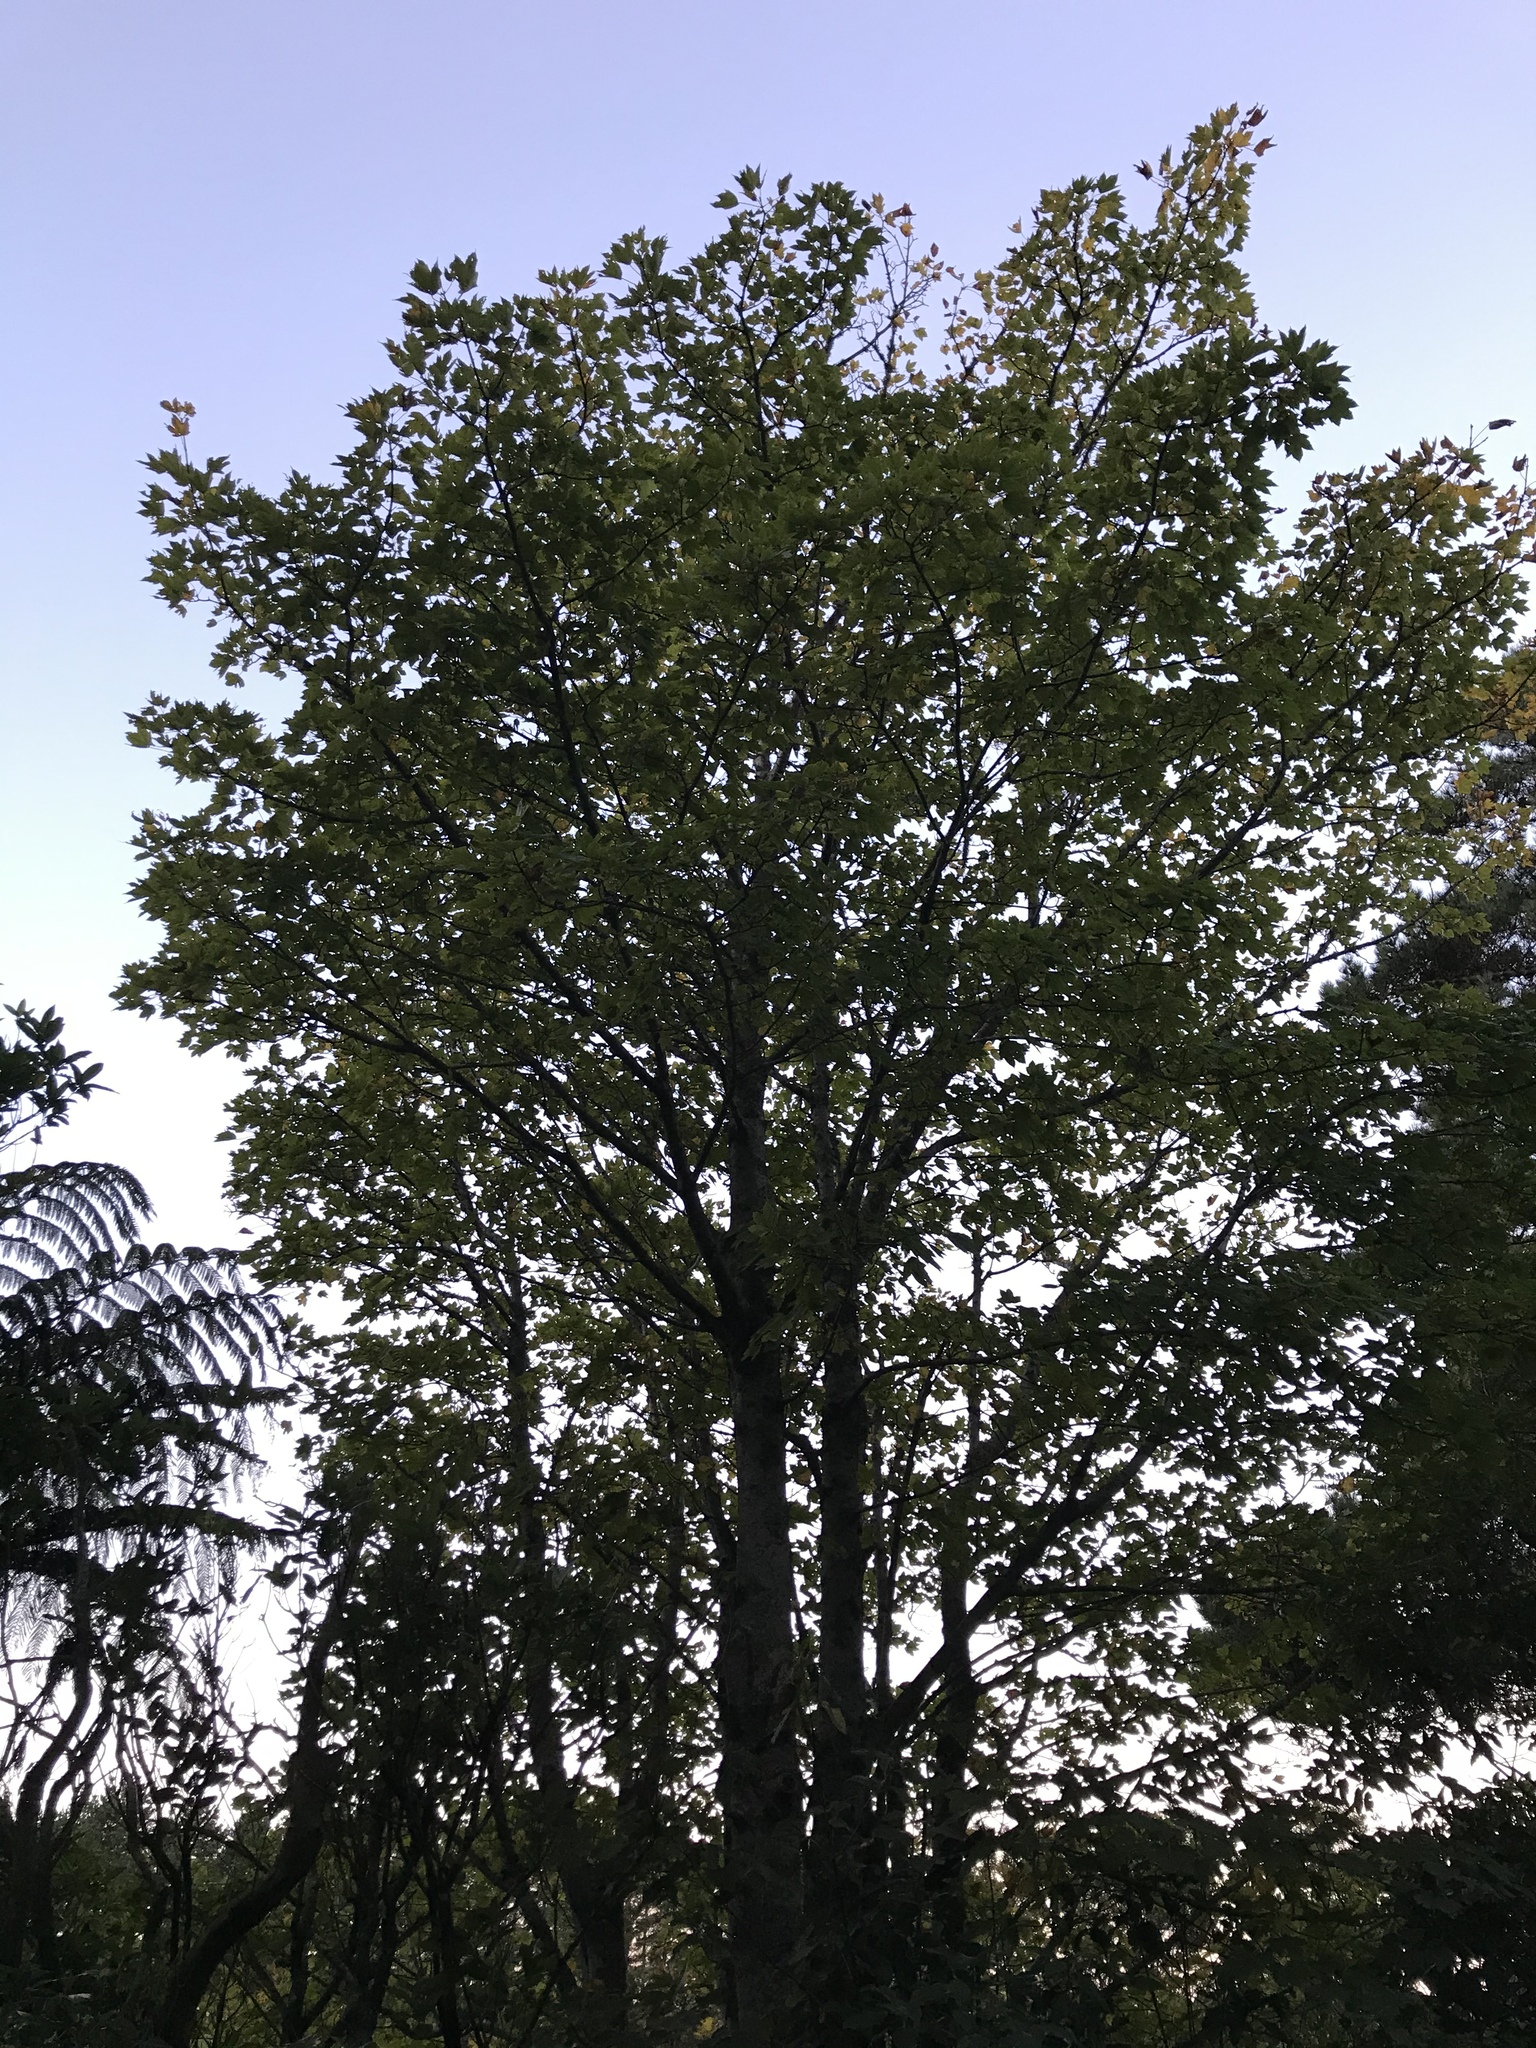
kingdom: Plantae
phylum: Tracheophyta
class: Magnoliopsida
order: Sapindales
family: Sapindaceae
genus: Acer
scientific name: Acer pseudoplatanus
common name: Sycamore
